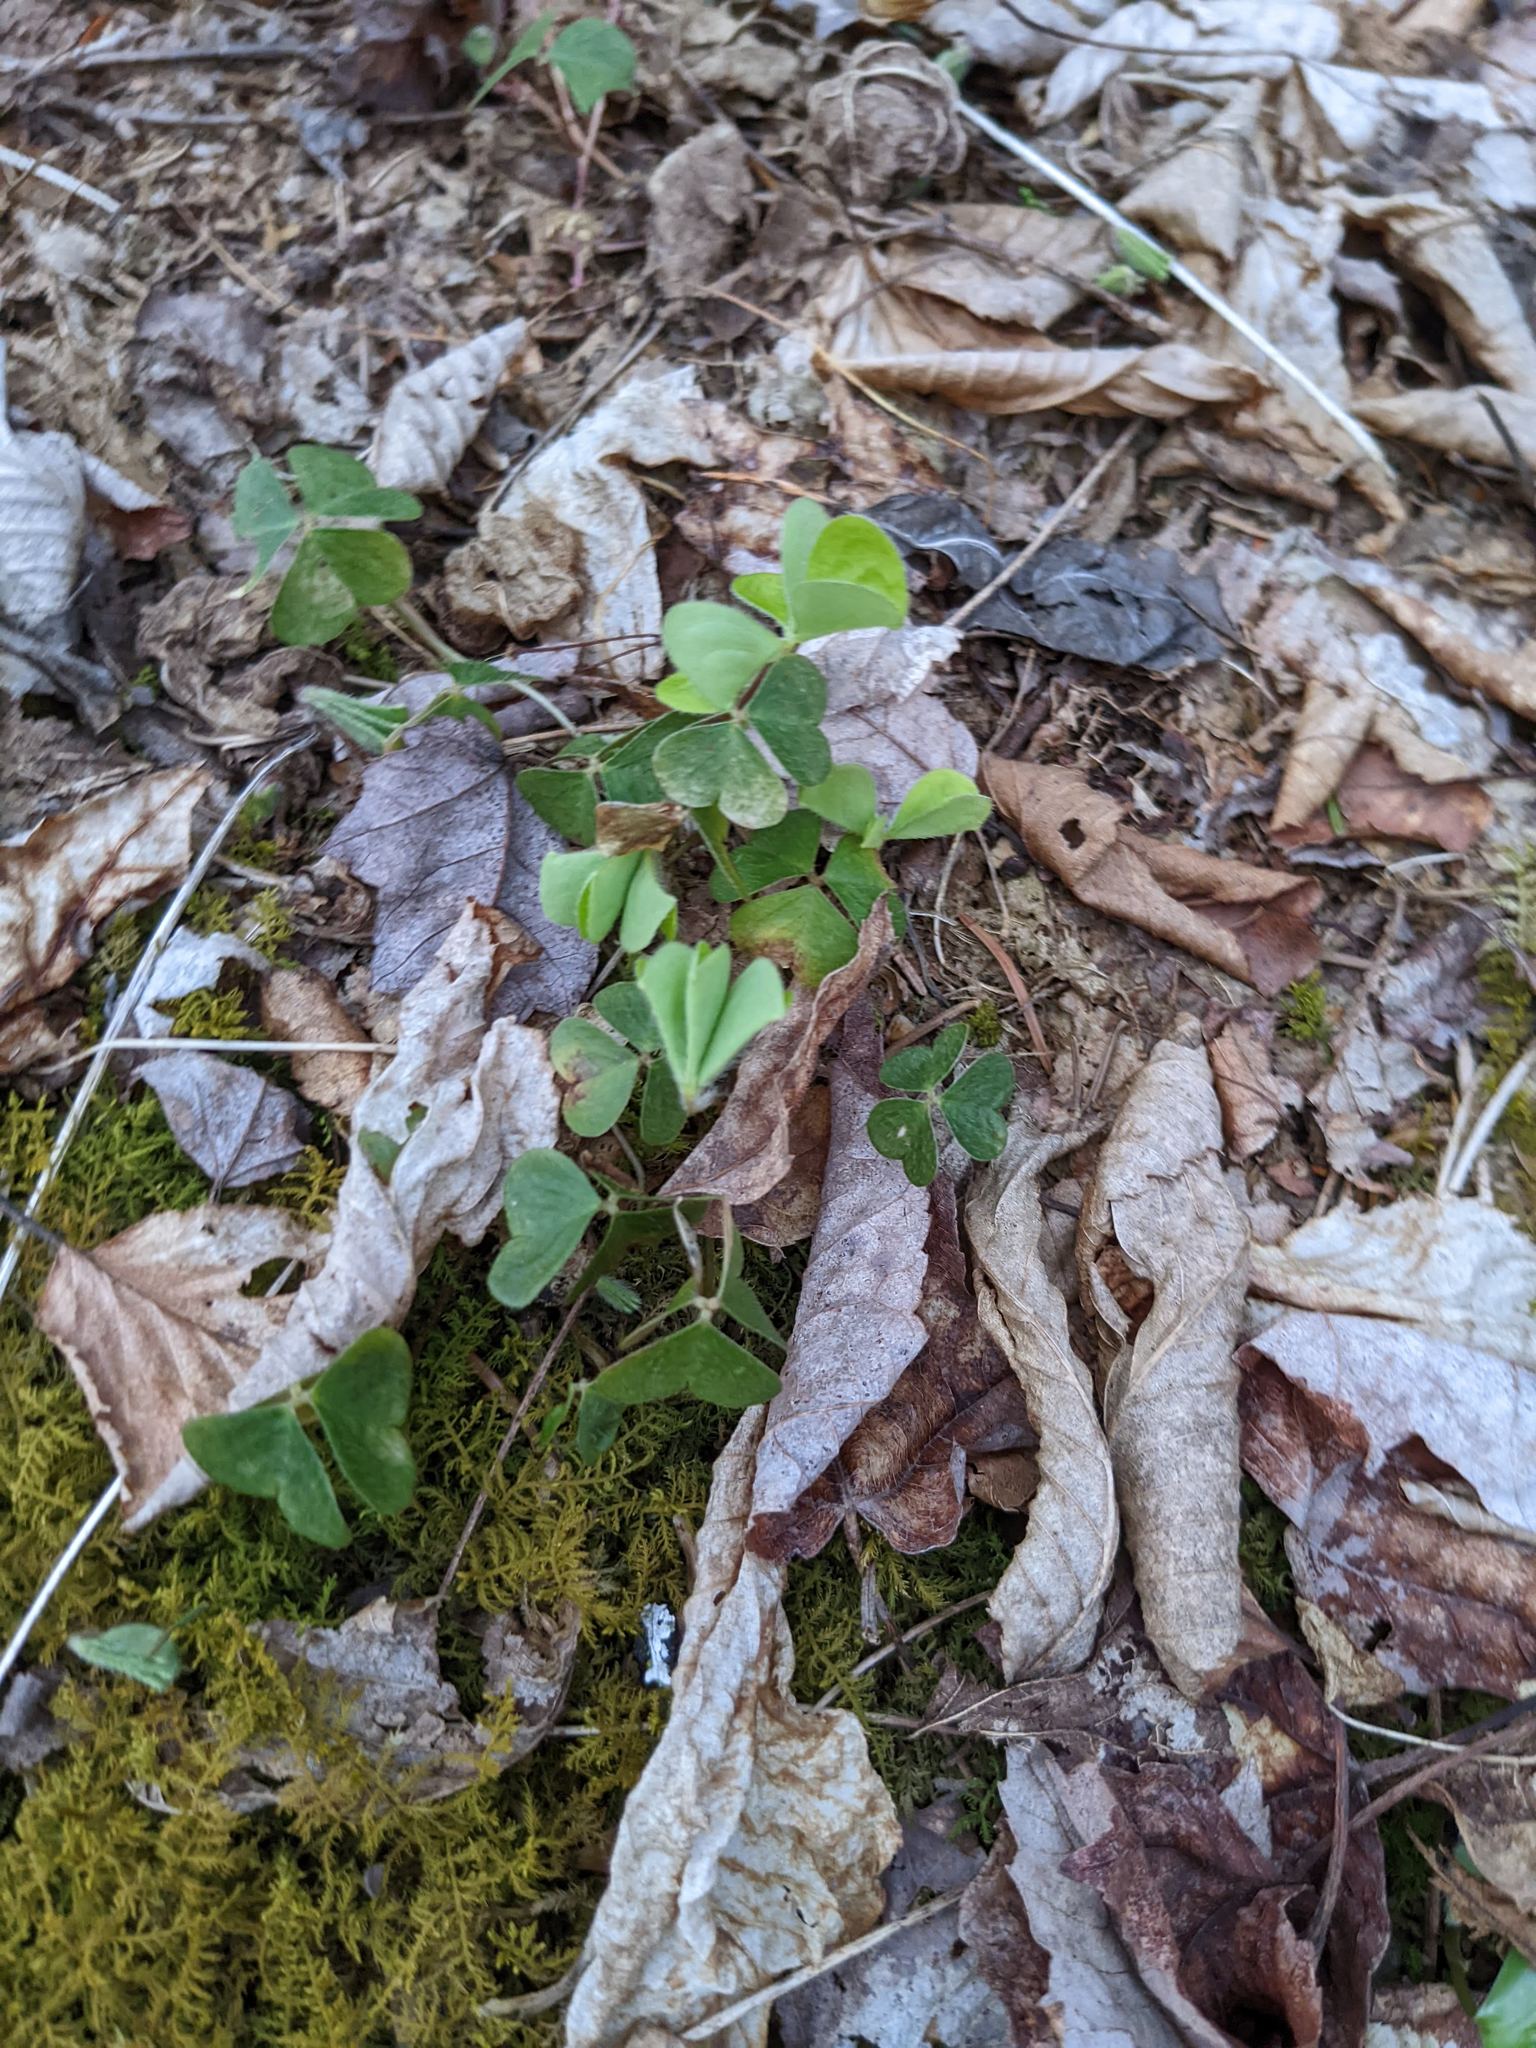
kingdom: Plantae
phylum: Tracheophyta
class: Magnoliopsida
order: Oxalidales
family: Oxalidaceae
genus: Oxalis
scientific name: Oxalis montana
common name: American wood-sorrel
